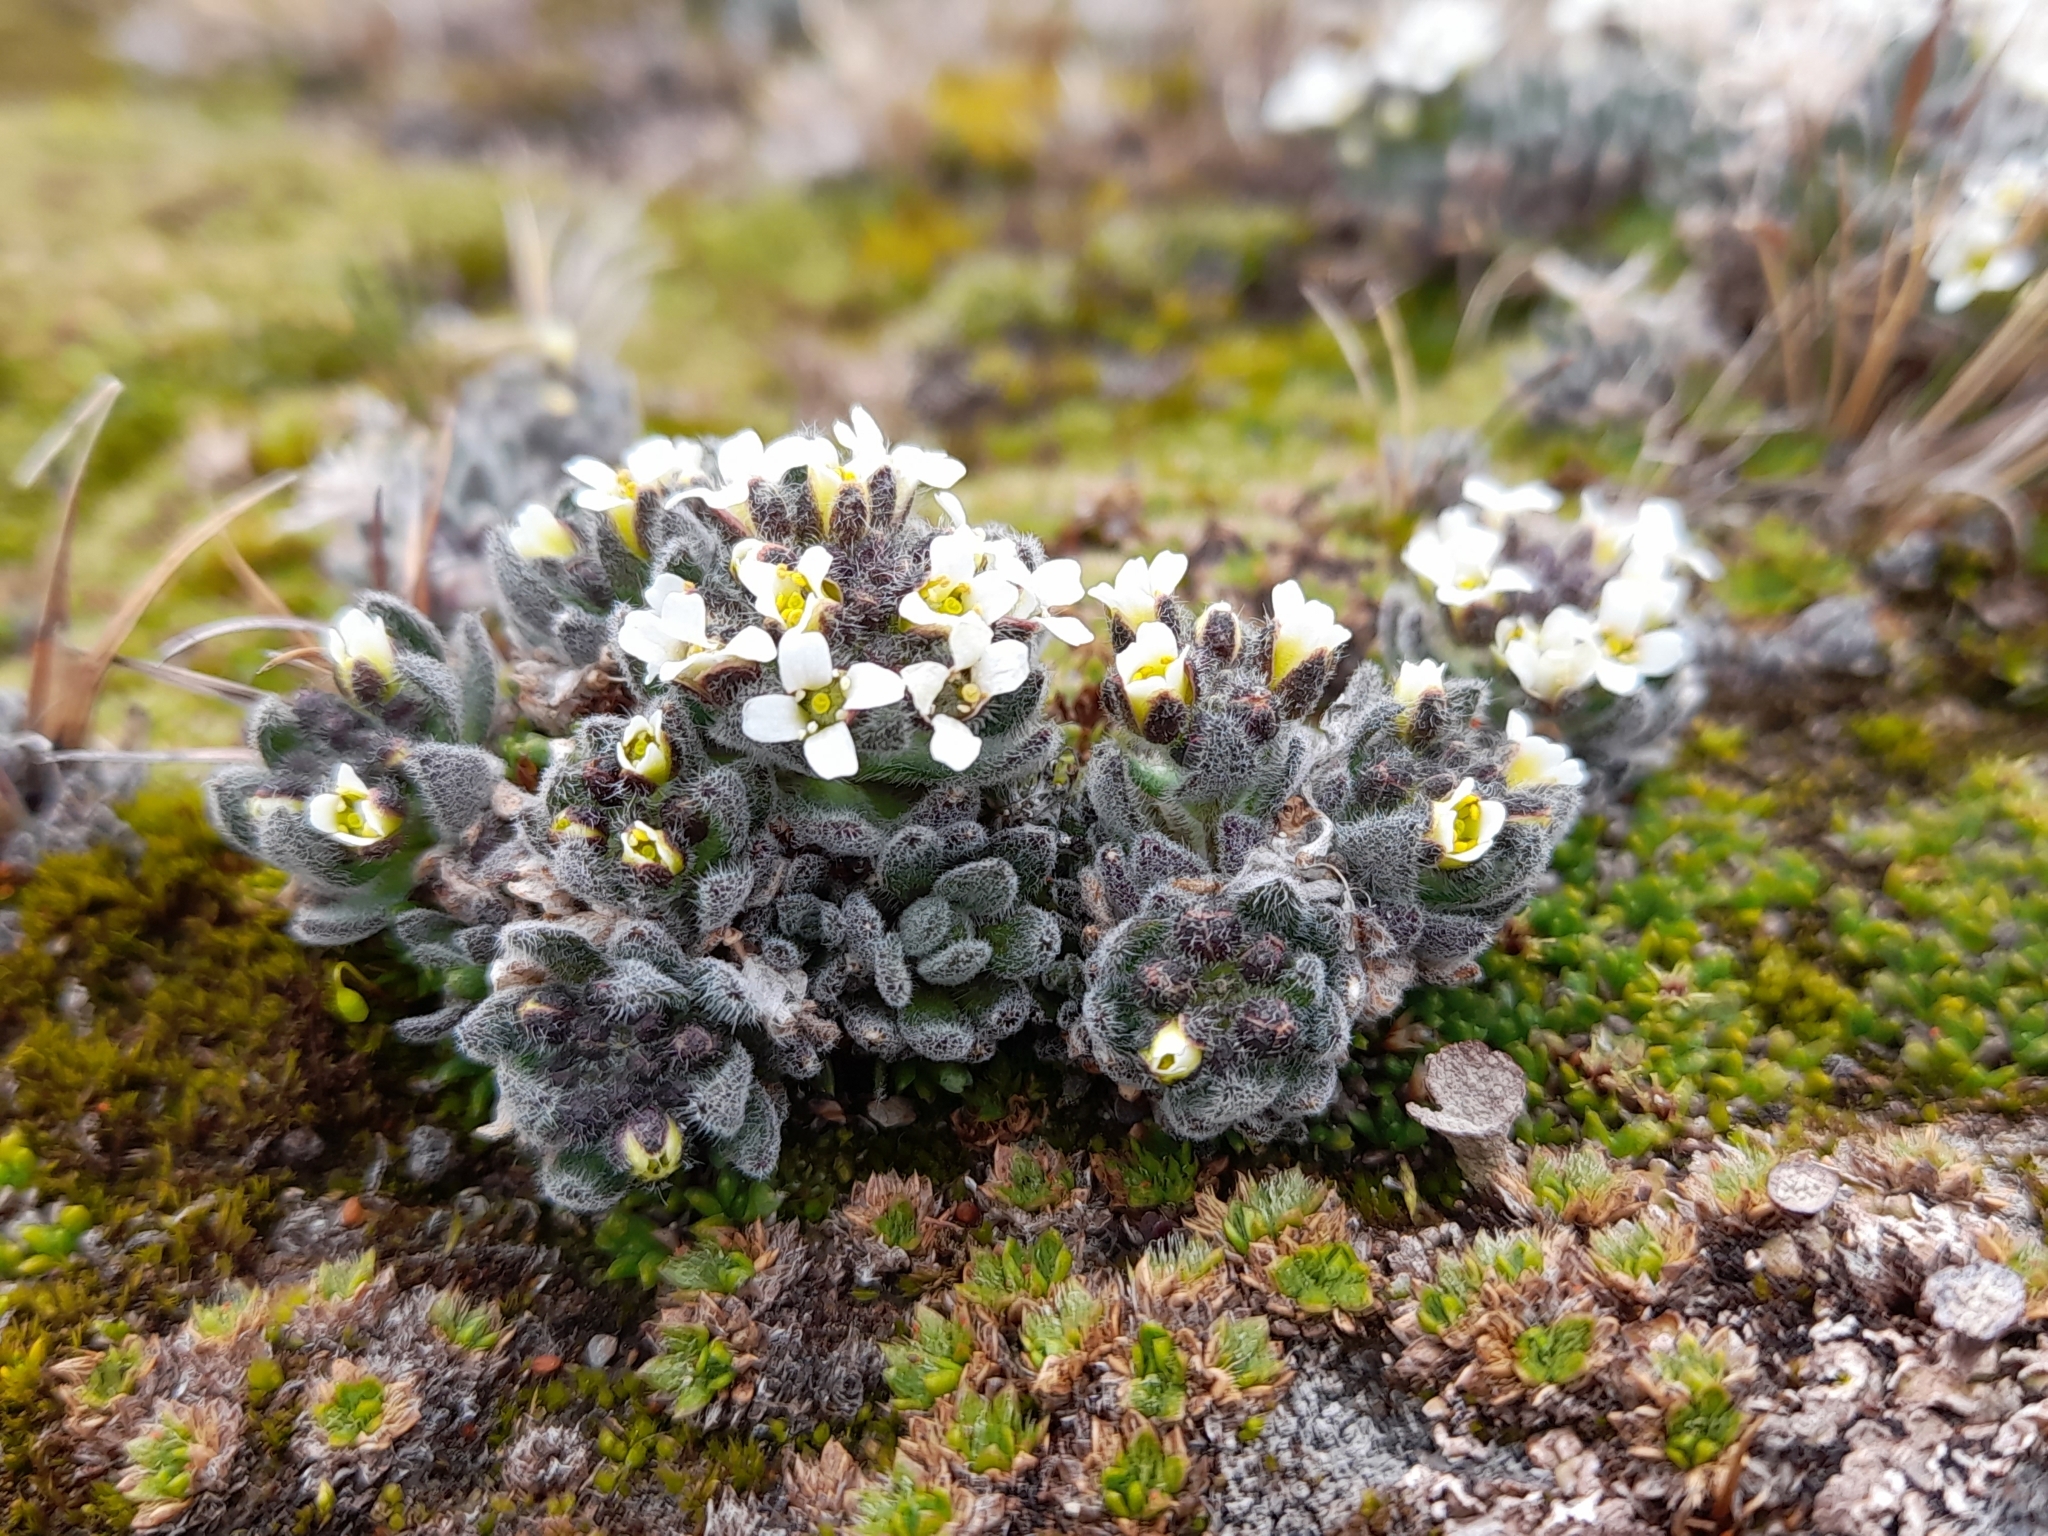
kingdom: Plantae
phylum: Tracheophyta
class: Magnoliopsida
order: Brassicales
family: Brassicaceae
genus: Draba
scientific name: Draba magellanica
